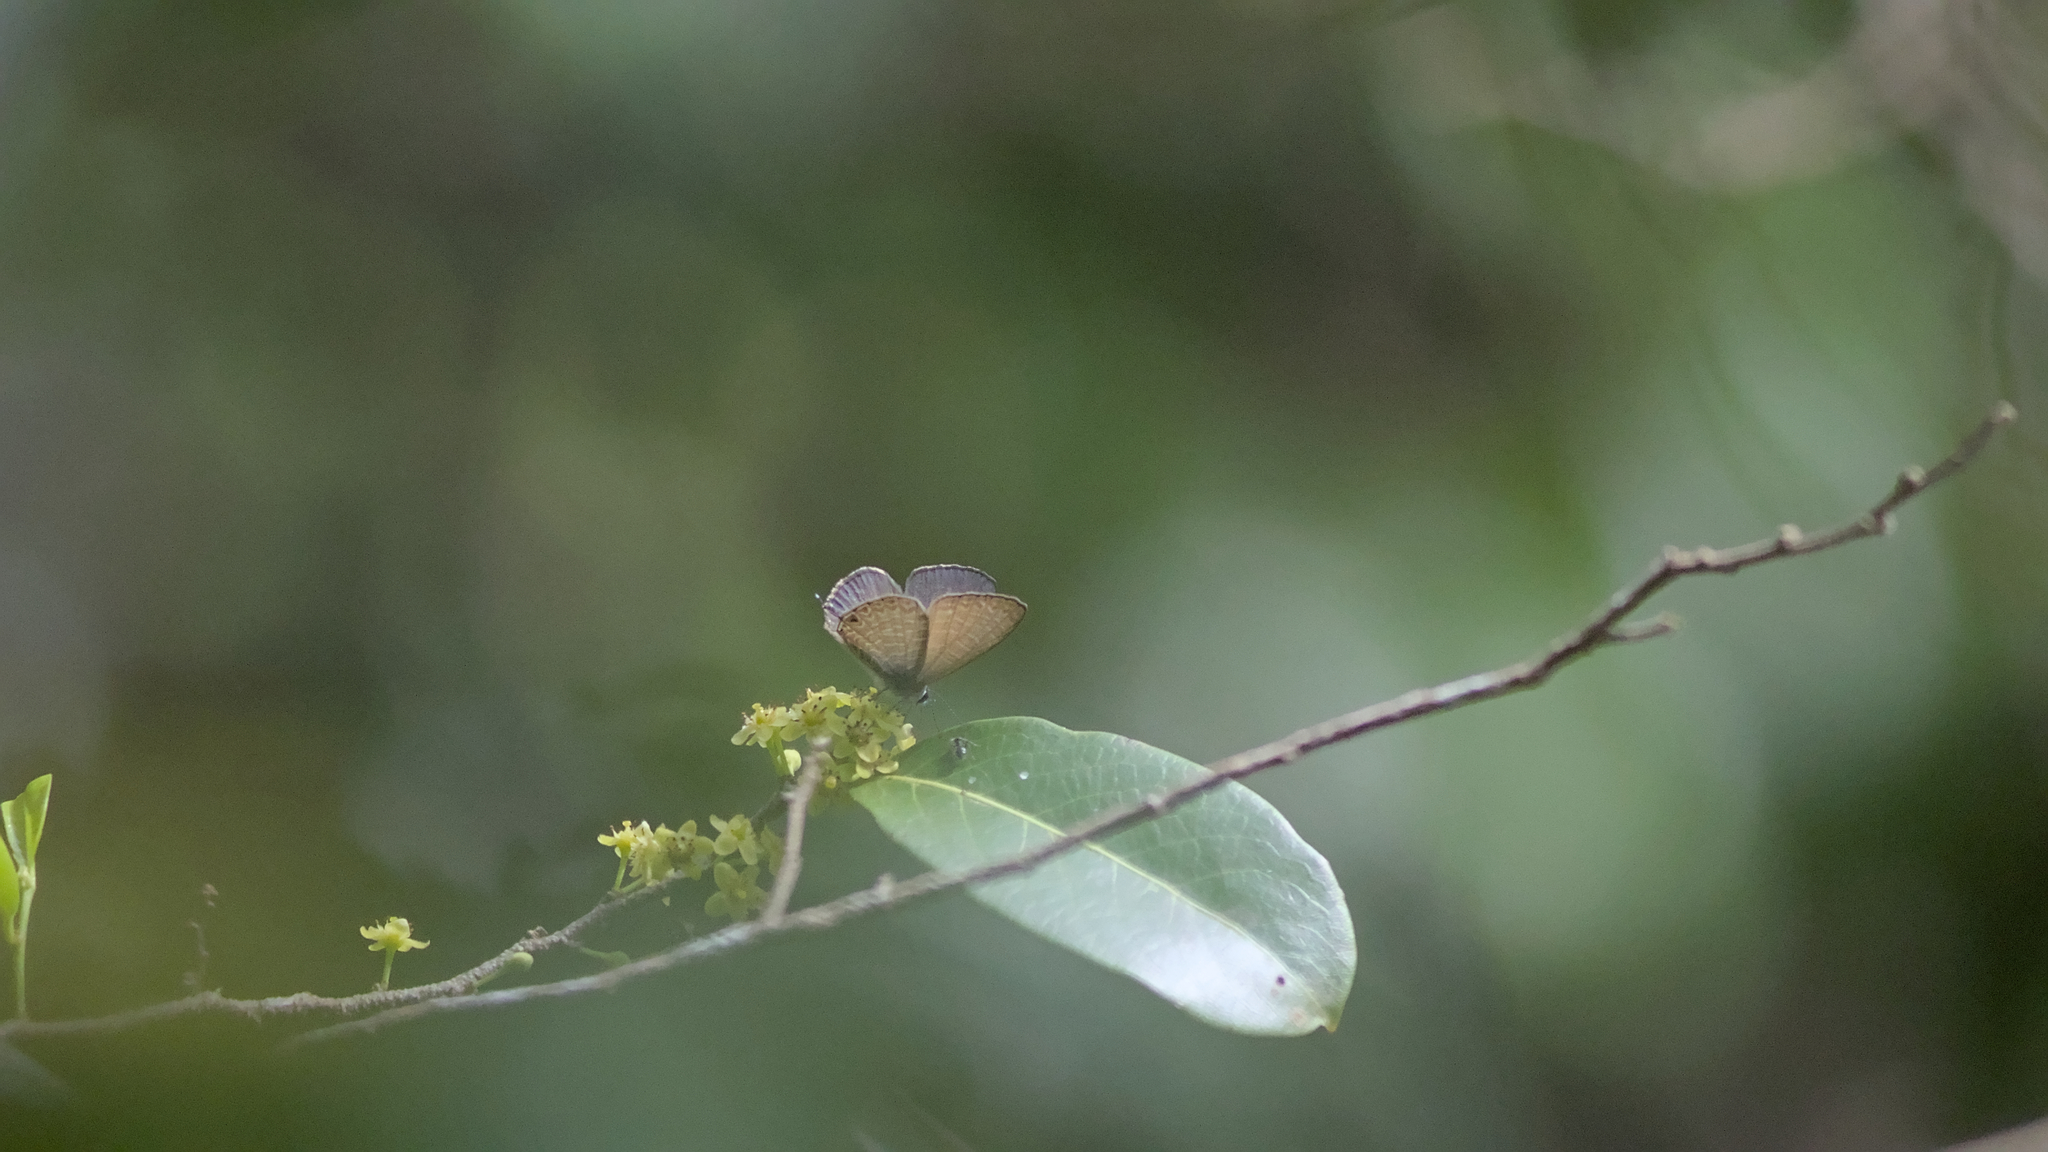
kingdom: Animalia
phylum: Arthropoda
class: Insecta
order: Lepidoptera
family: Lycaenidae
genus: Nacaduba
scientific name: Nacaduba berenice
